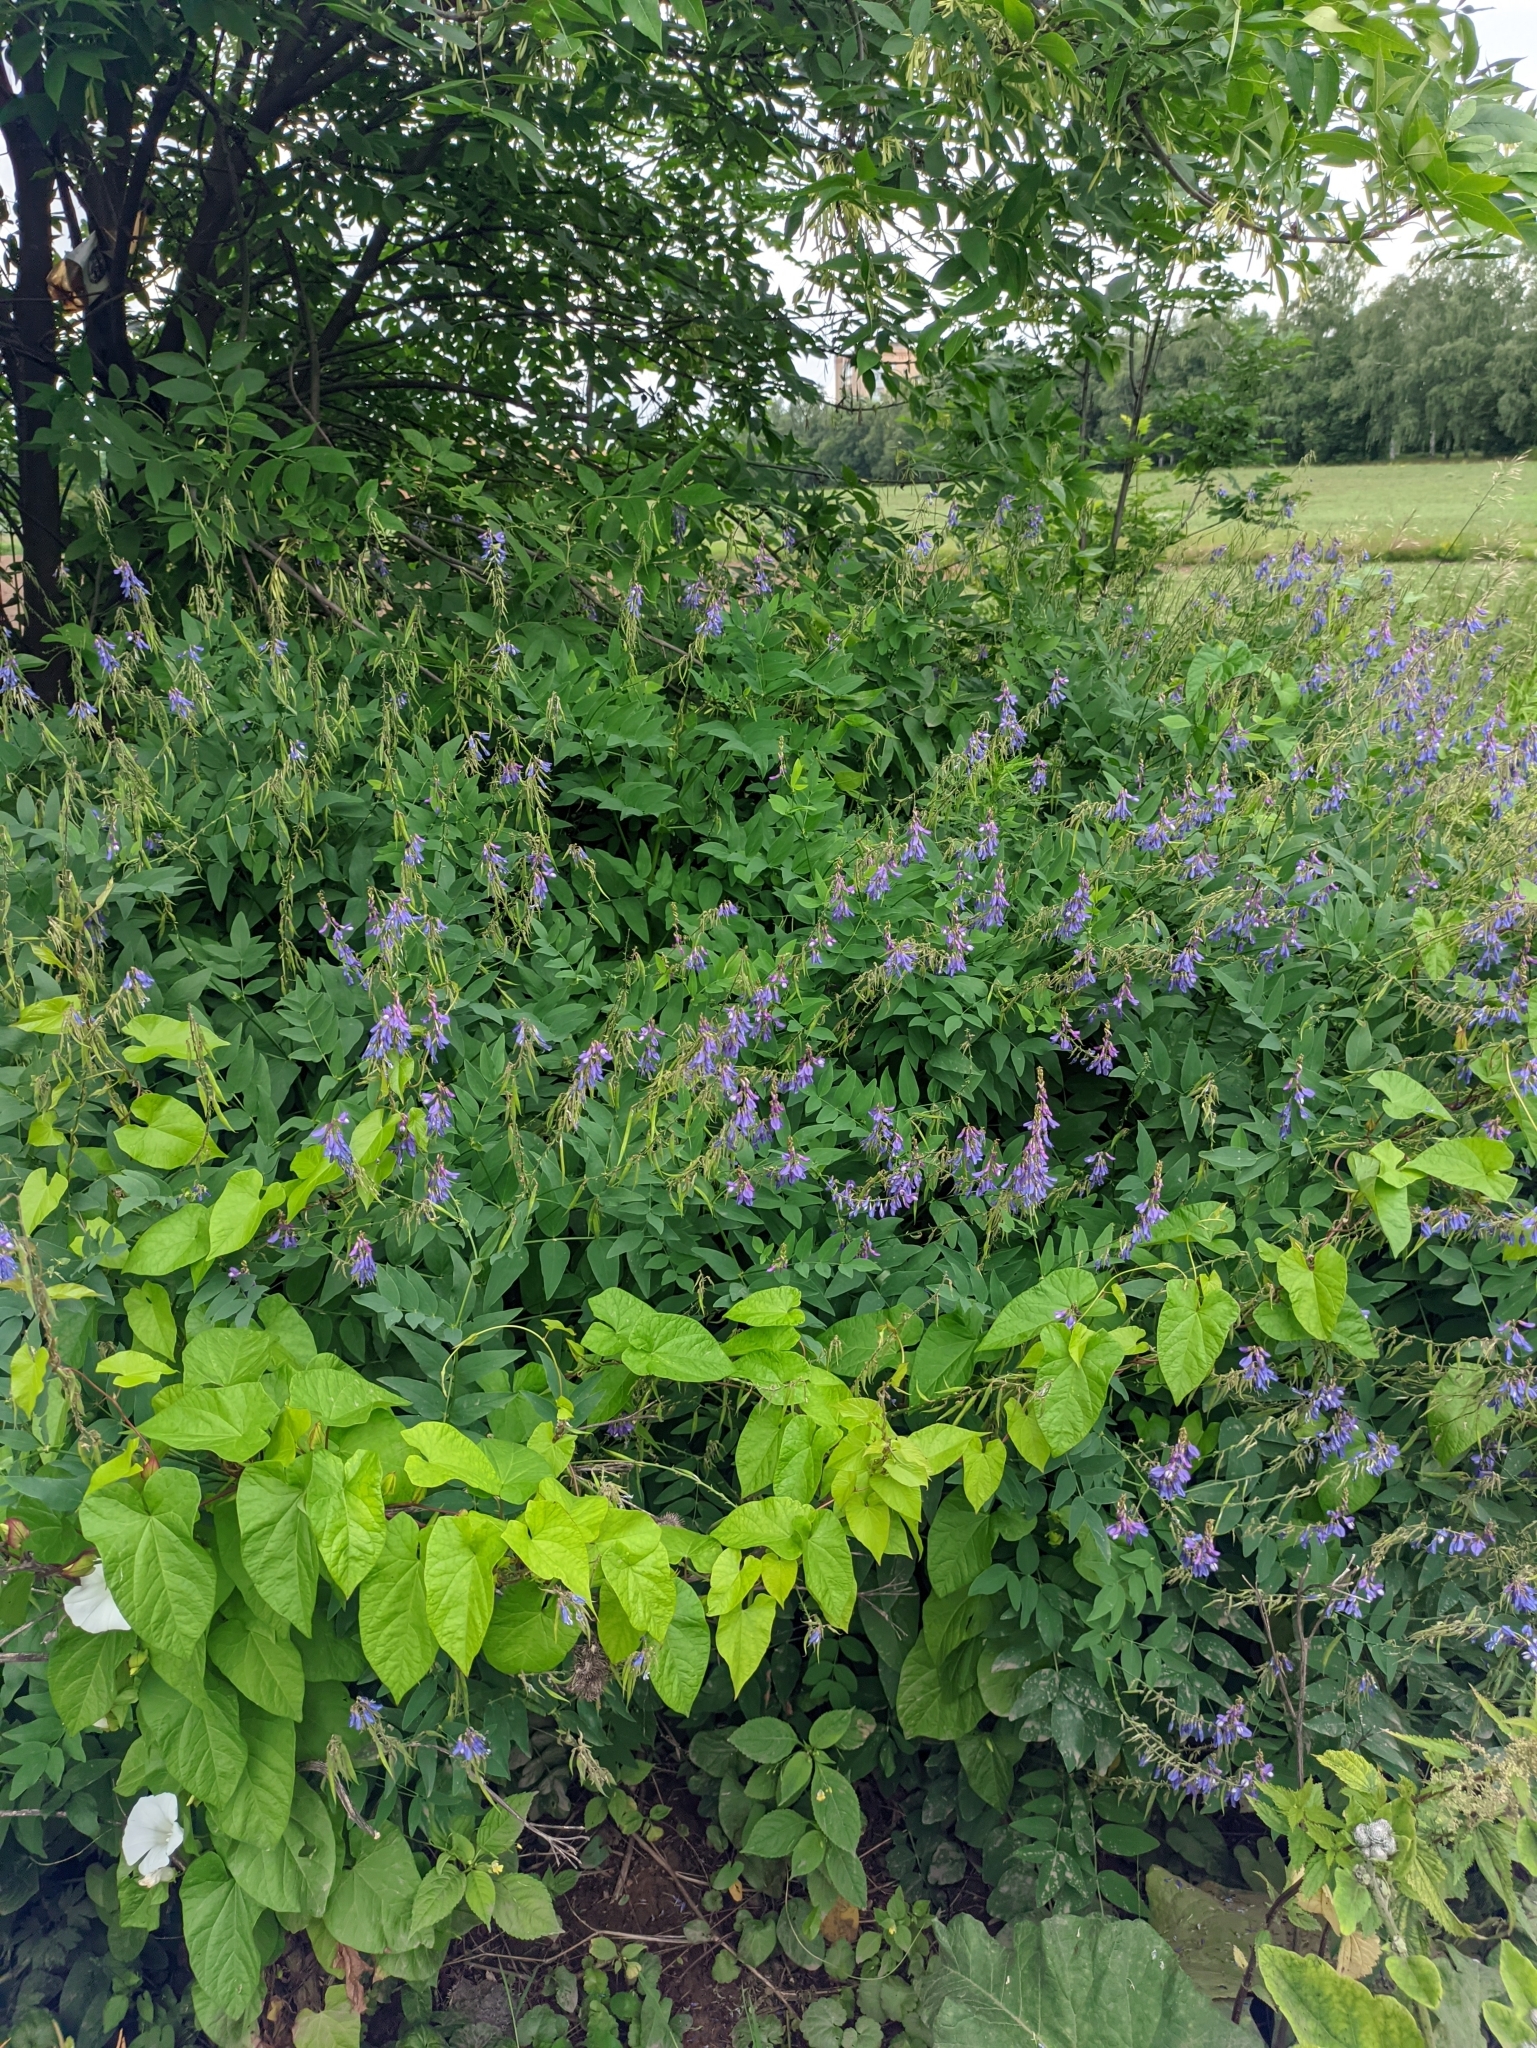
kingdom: Plantae
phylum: Tracheophyta
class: Magnoliopsida
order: Fabales
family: Fabaceae
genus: Galega
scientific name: Galega orientalis
